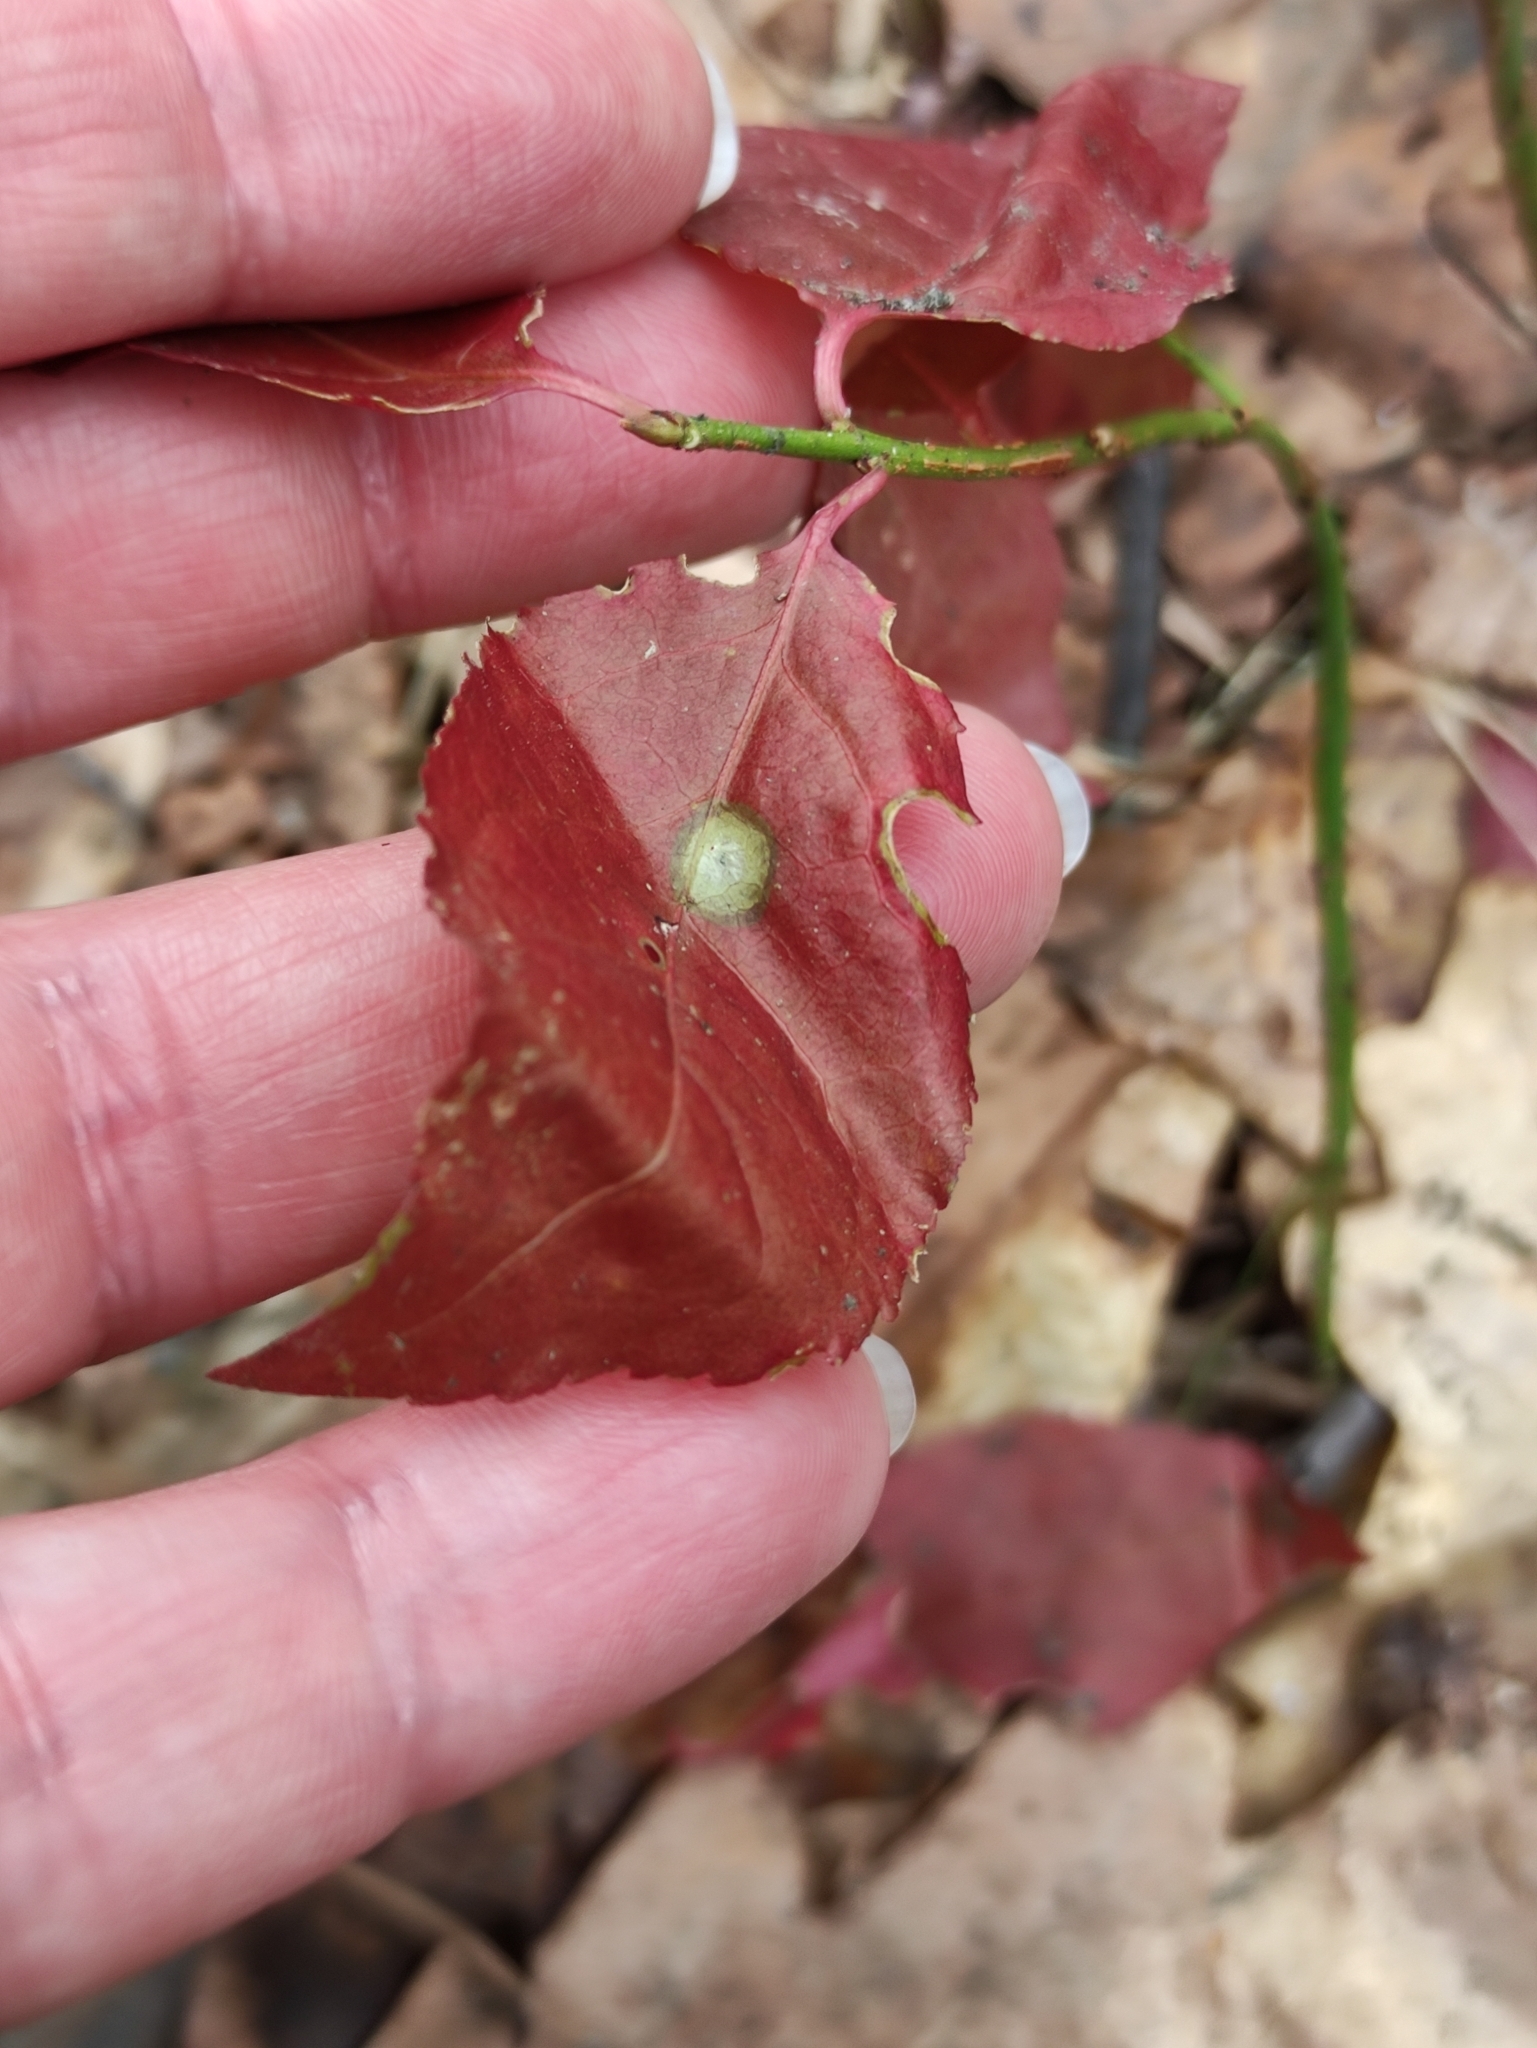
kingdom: Plantae
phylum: Tracheophyta
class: Magnoliopsida
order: Celastrales
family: Celastraceae
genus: Euonymus
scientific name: Euonymus europaeus
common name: Spindle
